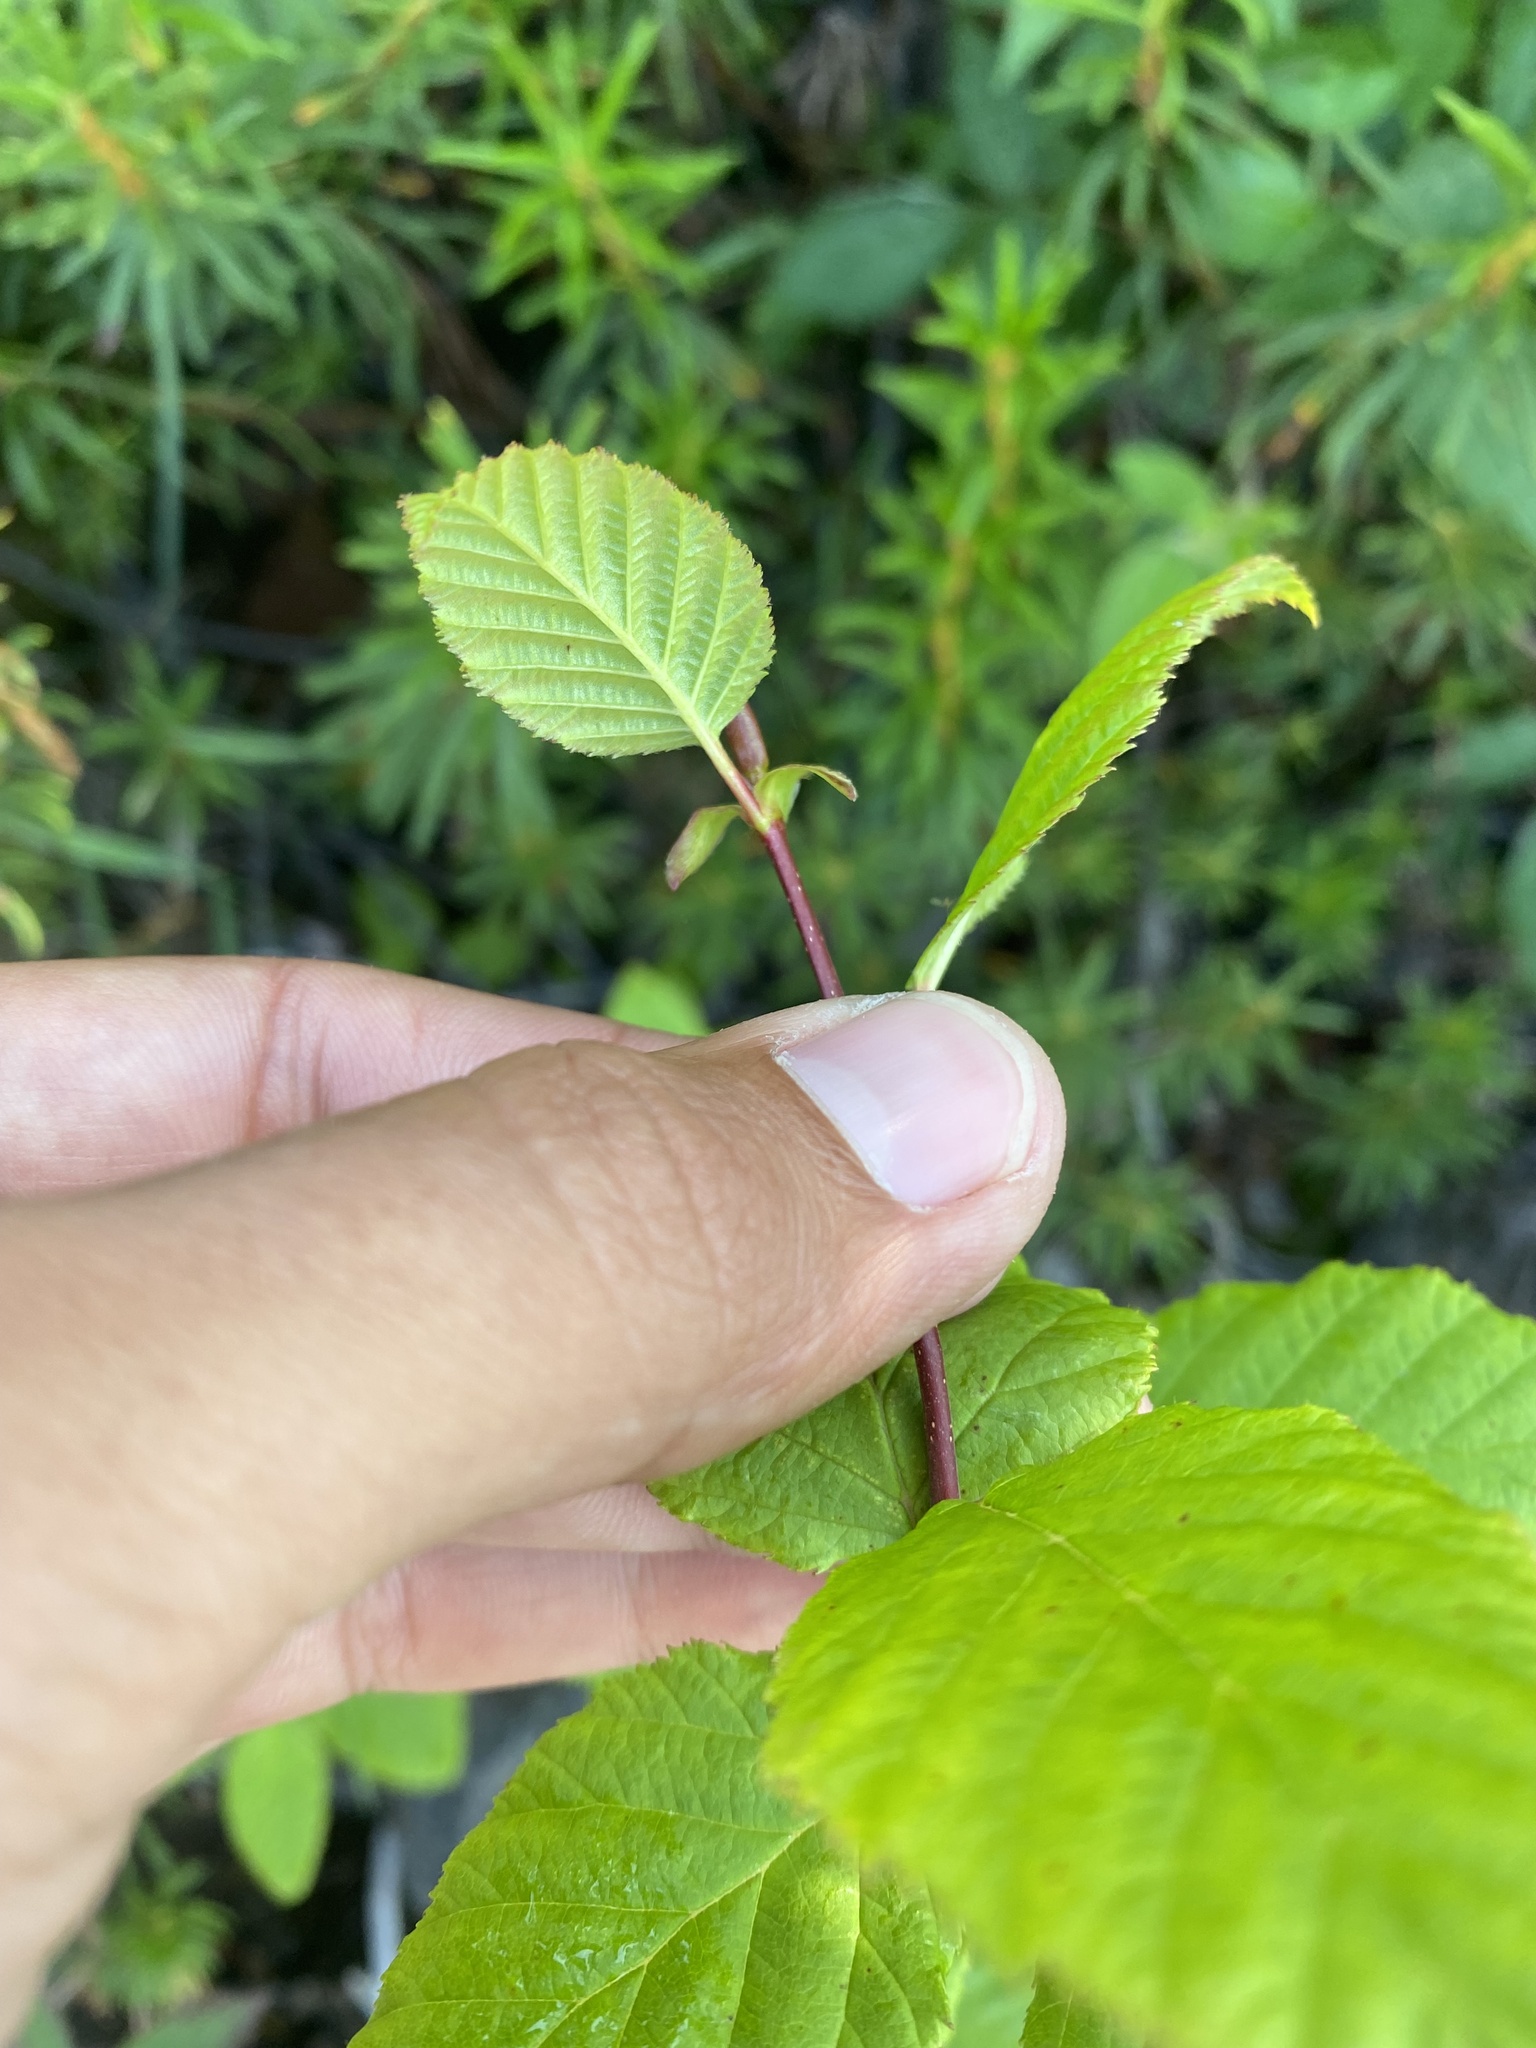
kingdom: Plantae
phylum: Tracheophyta
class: Magnoliopsida
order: Fagales
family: Betulaceae
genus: Alnus
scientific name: Alnus alnobetula
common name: Green alder
